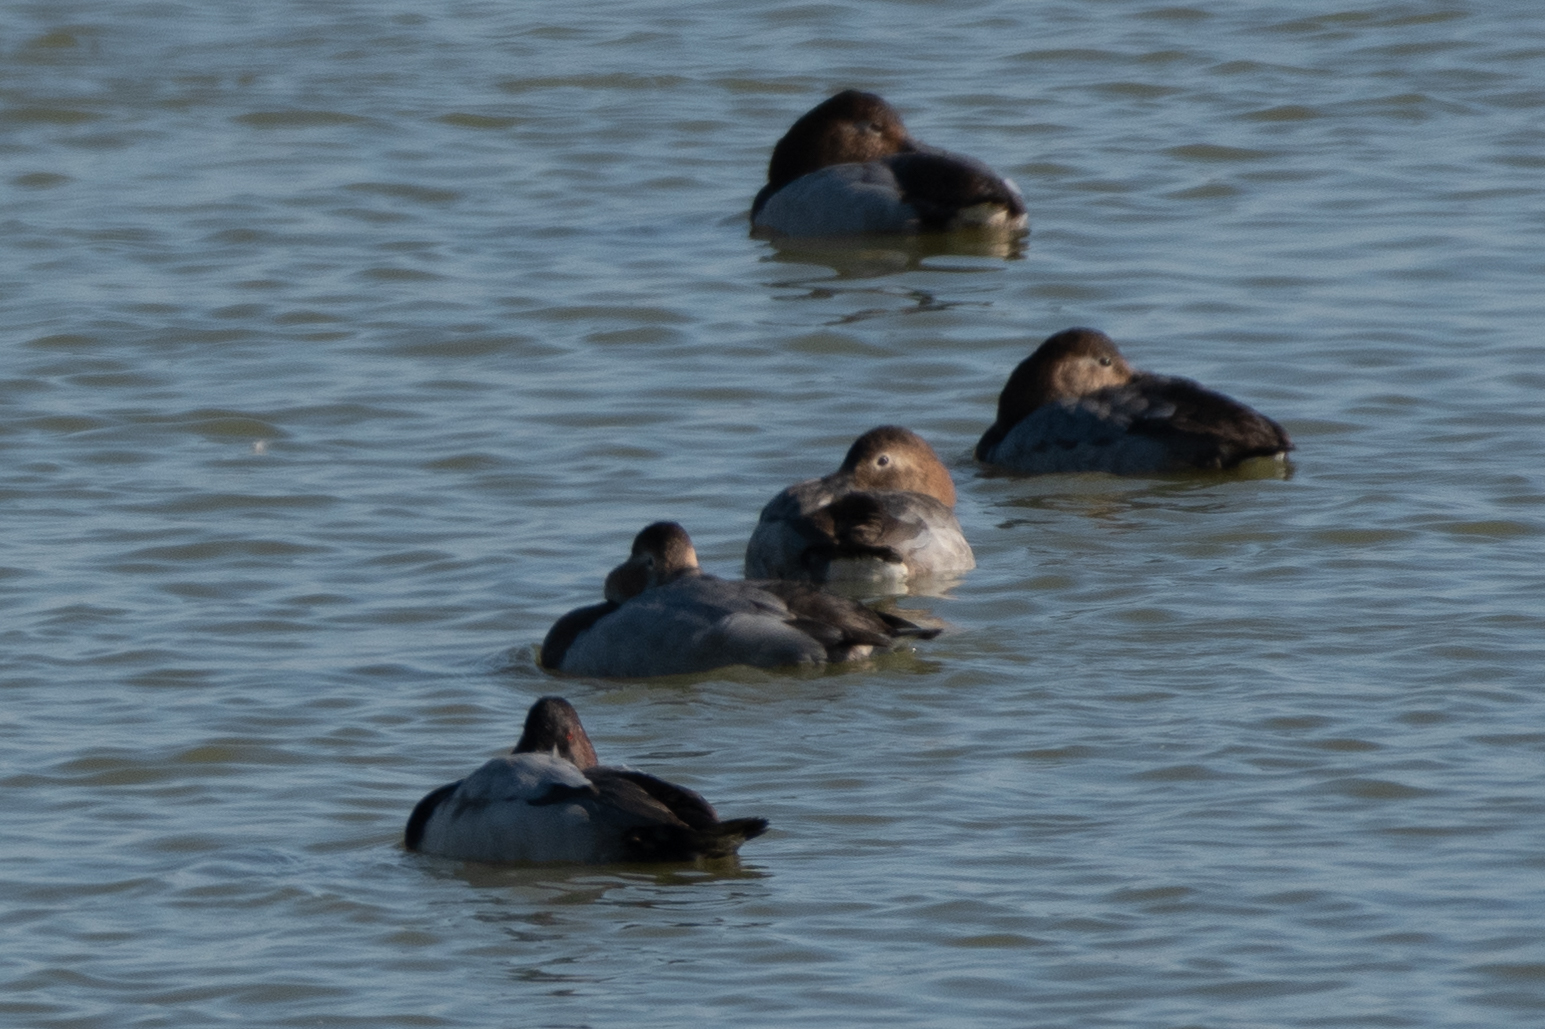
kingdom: Animalia
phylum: Chordata
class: Aves
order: Anseriformes
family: Anatidae
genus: Aythya
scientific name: Aythya valisineria
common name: Canvasback
